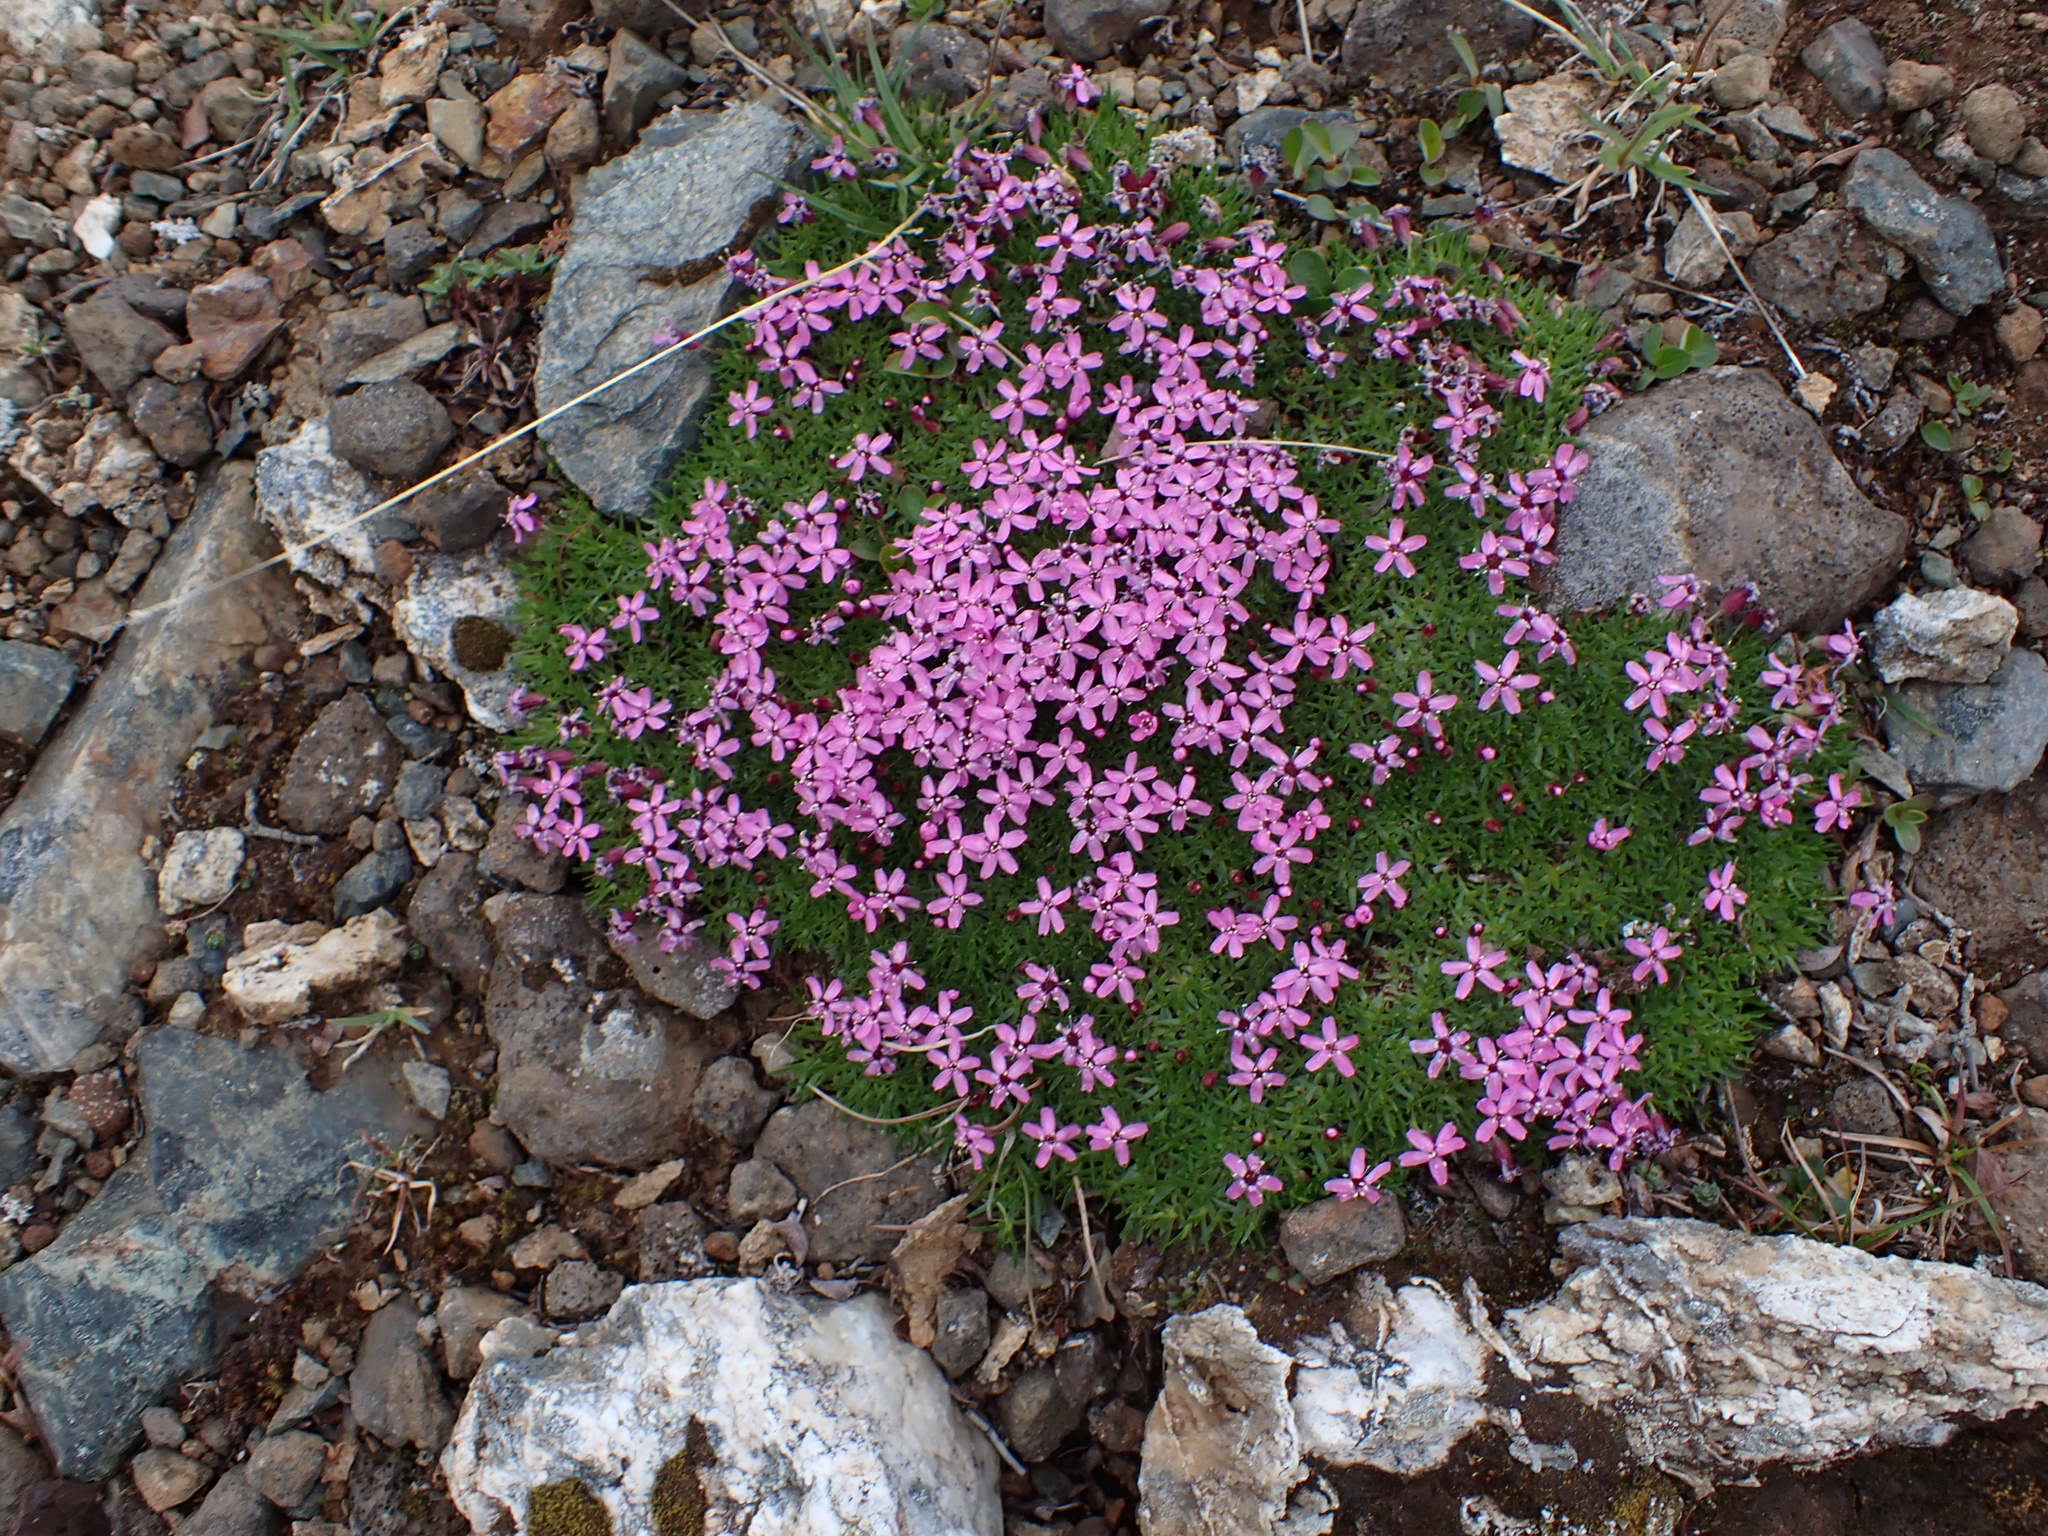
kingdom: Plantae
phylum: Tracheophyta
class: Magnoliopsida
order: Caryophyllales
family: Caryophyllaceae
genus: Silene
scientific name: Silene acaulis
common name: Moss campion
